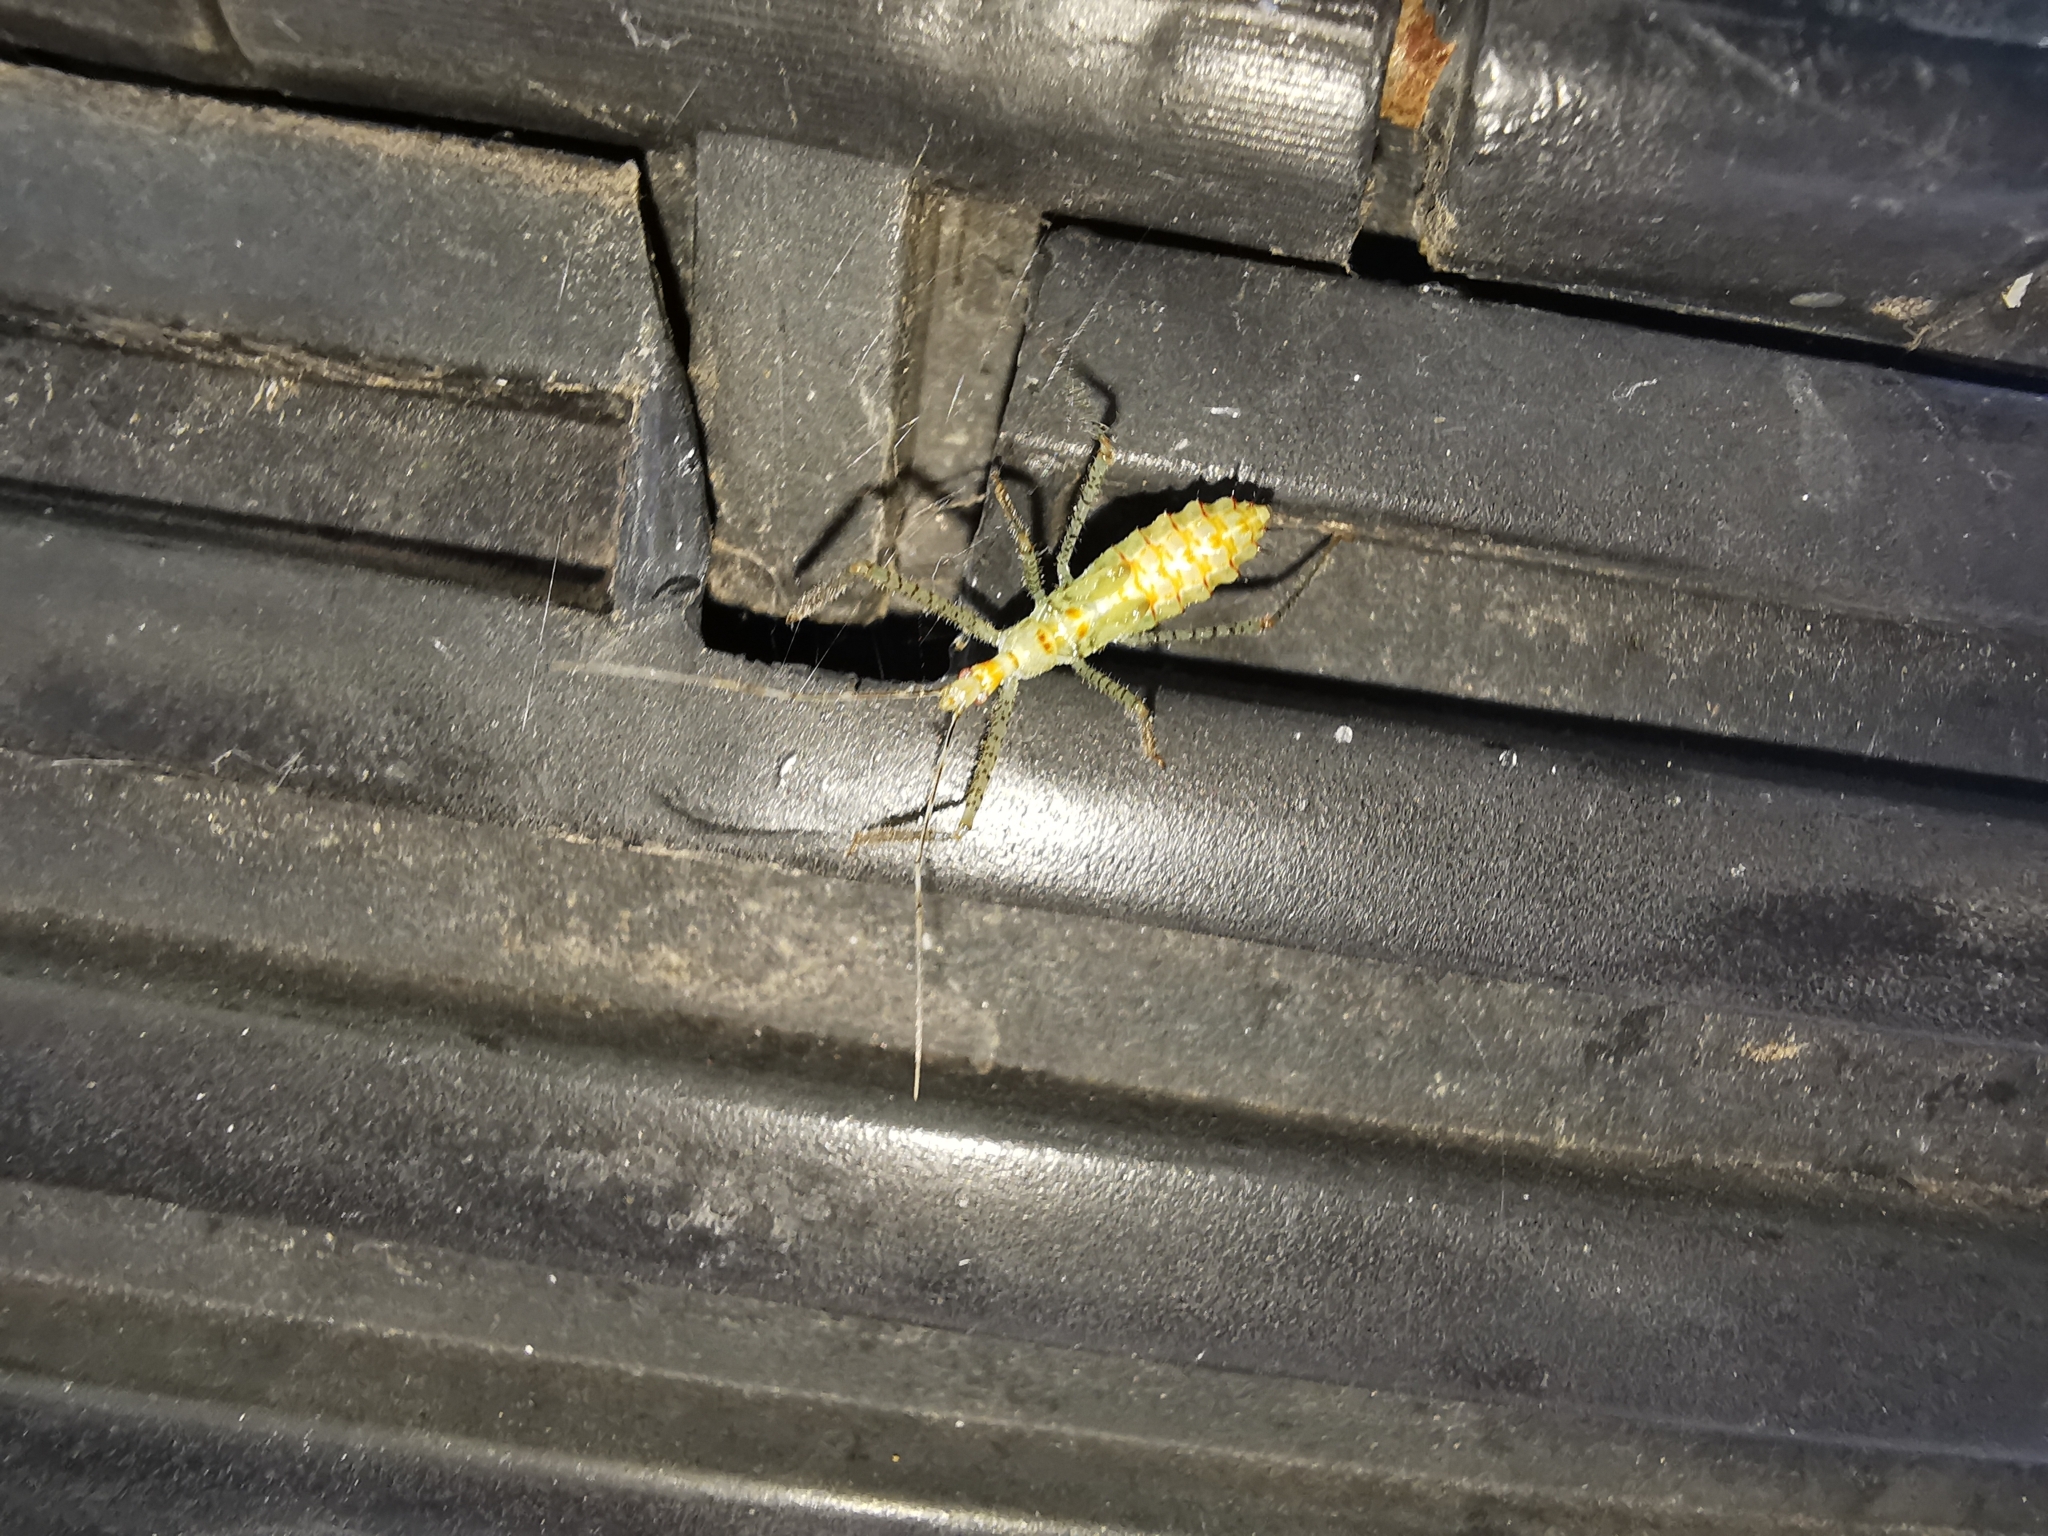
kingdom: Animalia
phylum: Arthropoda
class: Insecta
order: Hemiptera
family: Reduviidae
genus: Zelus
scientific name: Zelus renardii
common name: Assassin bug
